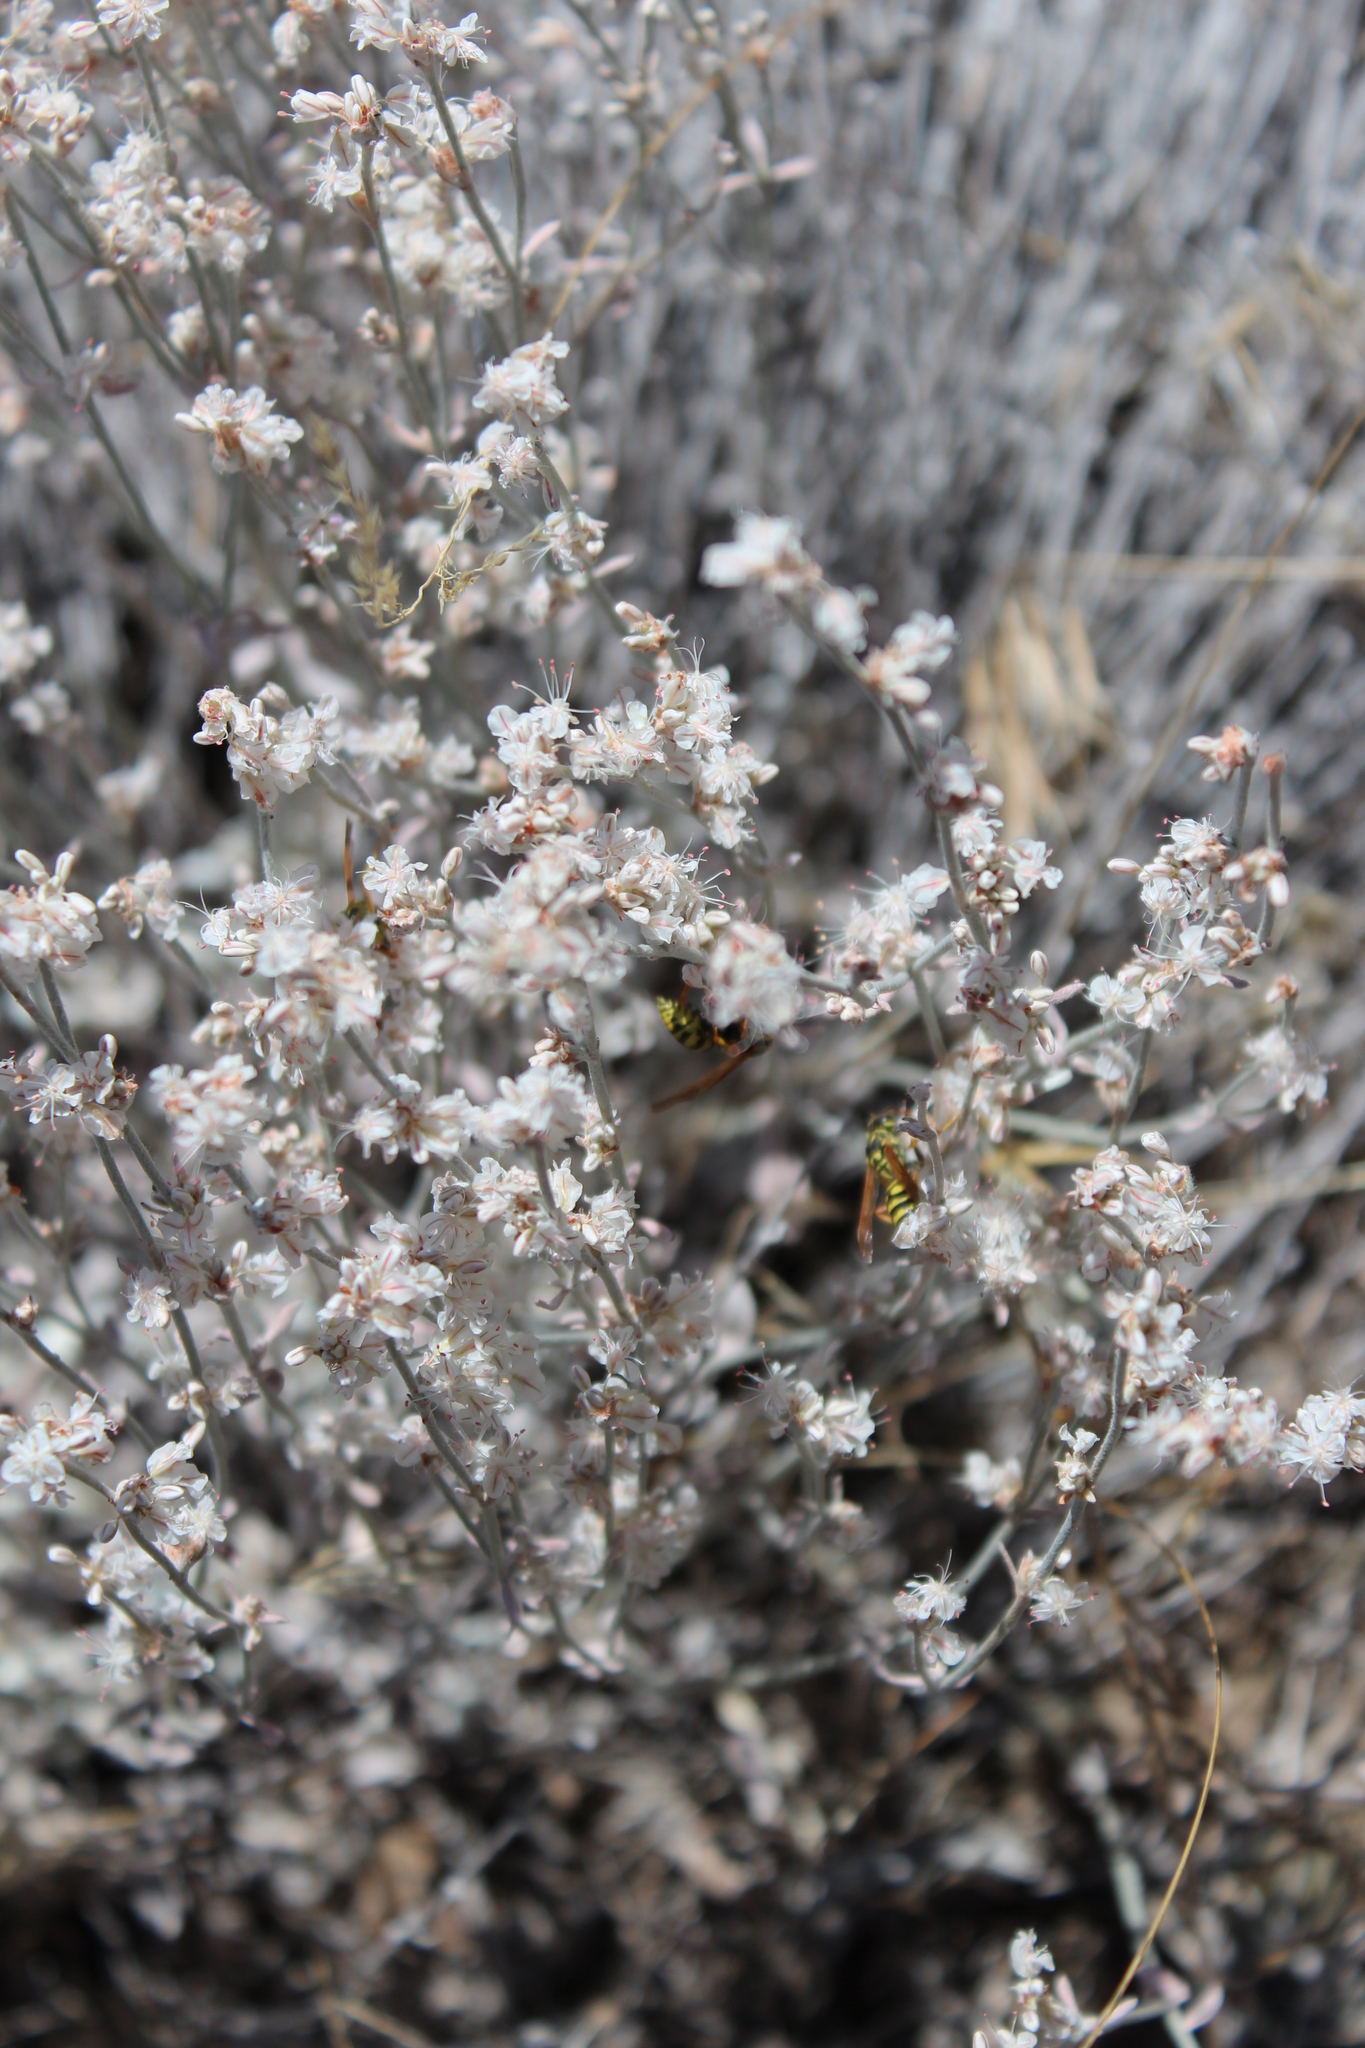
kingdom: Plantae
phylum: Tracheophyta
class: Magnoliopsida
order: Caryophyllales
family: Polygonaceae
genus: Eriogonum
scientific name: Eriogonum niveum
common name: Snow wild buckwheat
